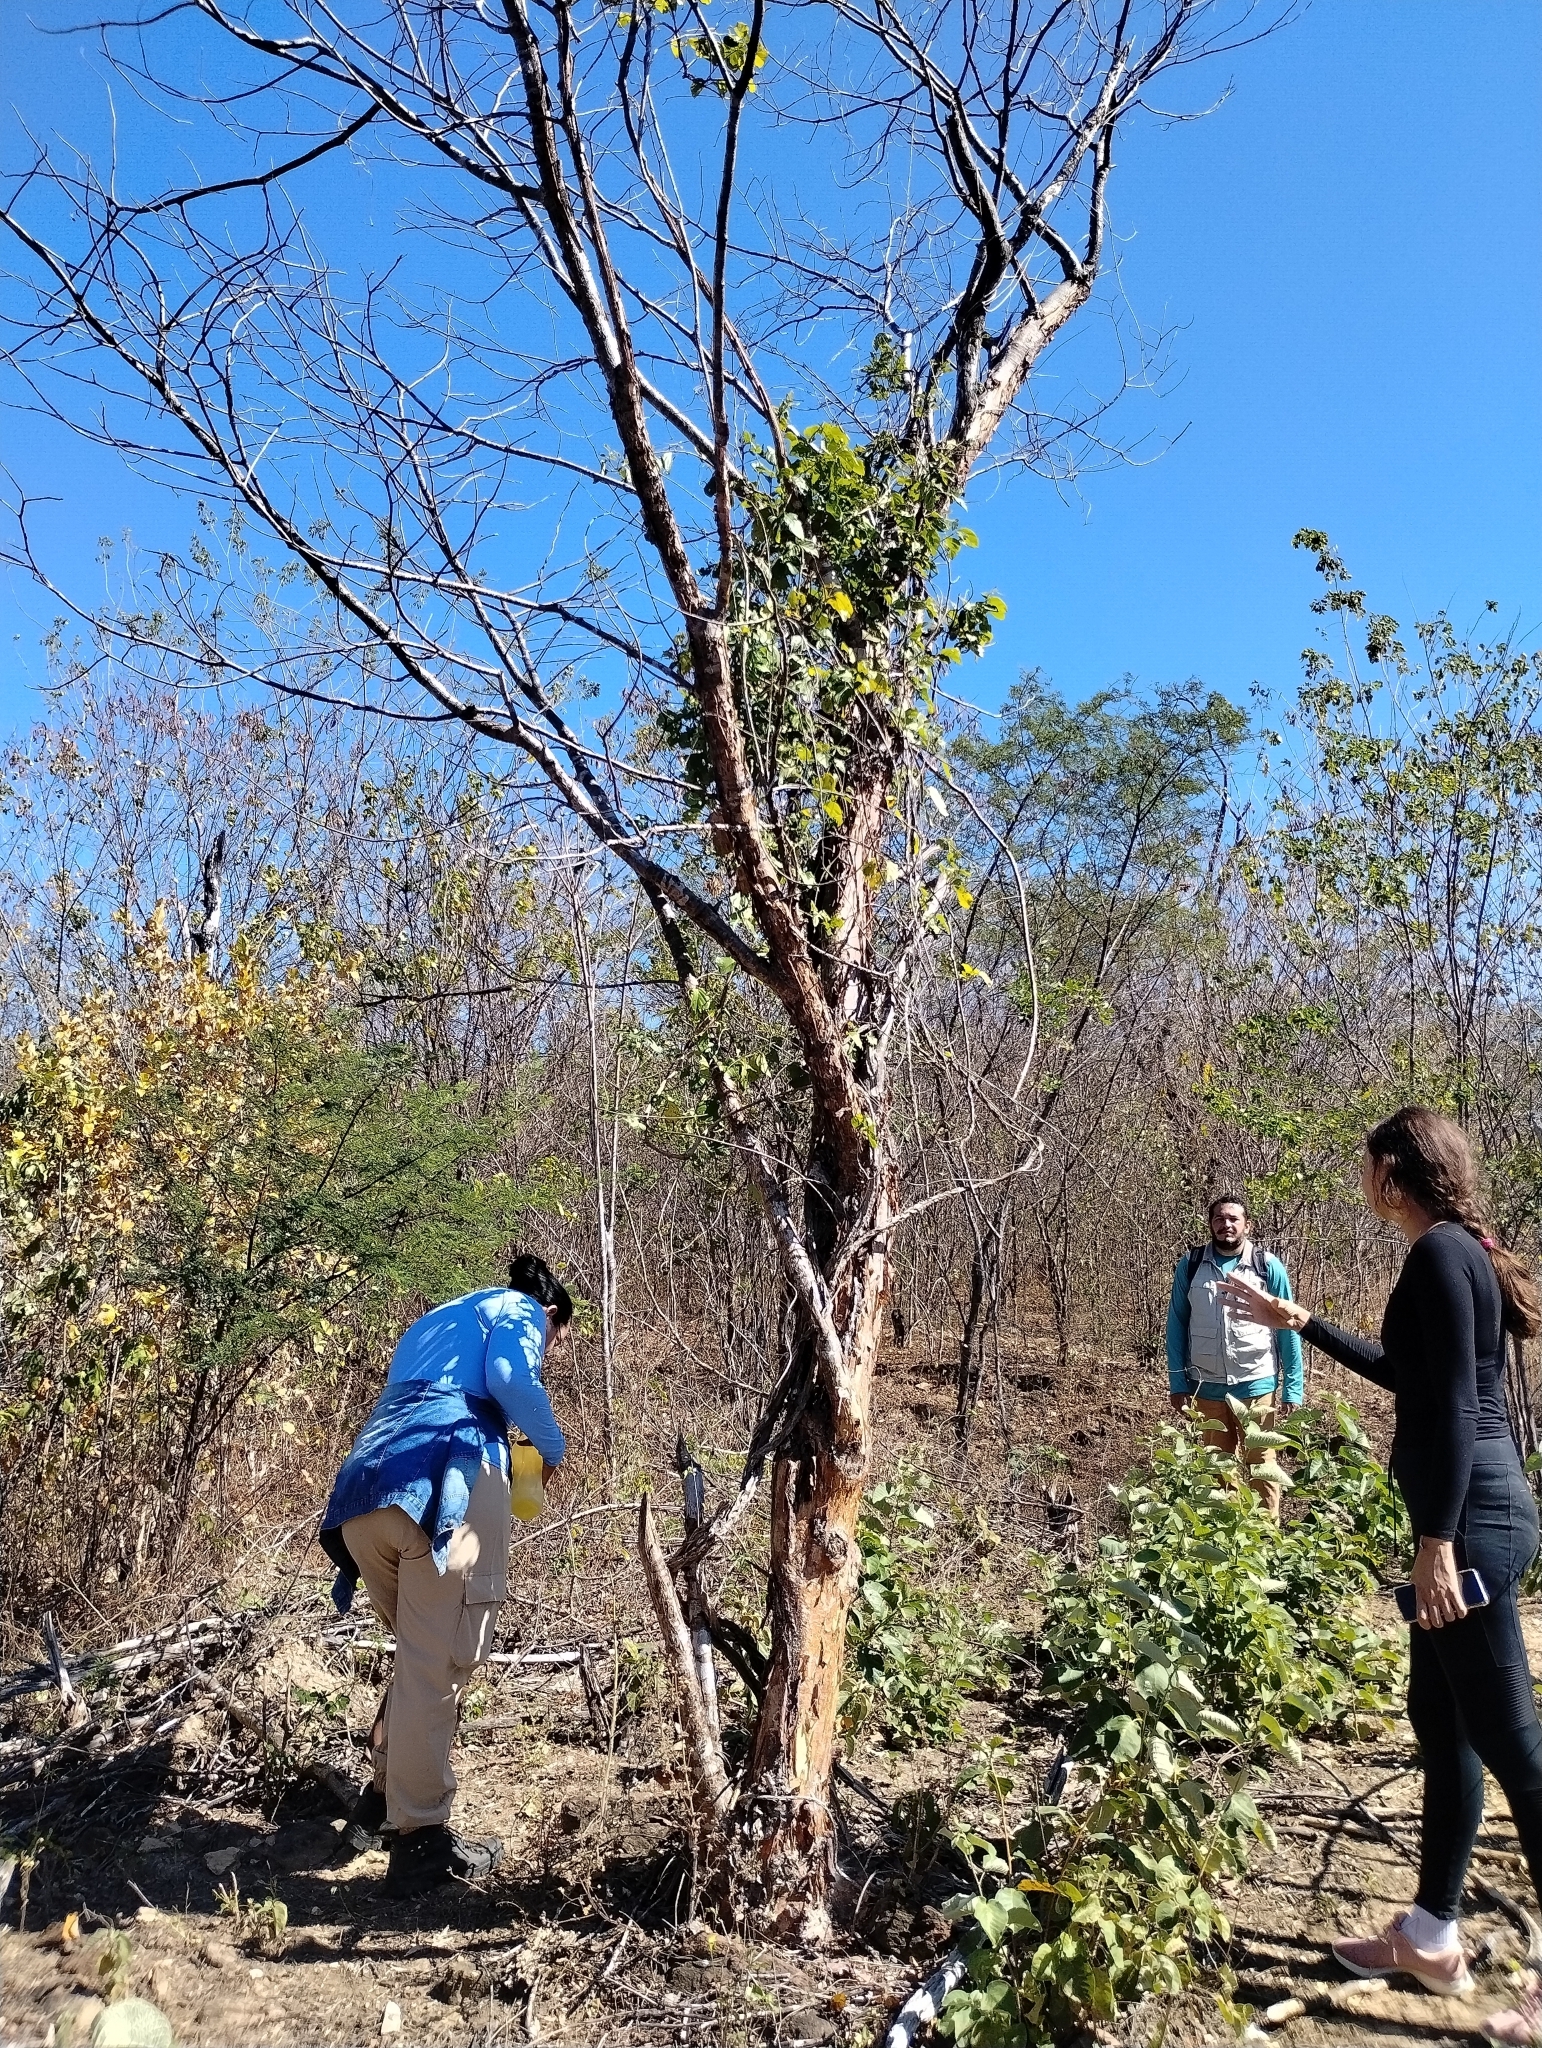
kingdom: Plantae
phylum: Tracheophyta
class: Magnoliopsida
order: Fabales
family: Fabaceae
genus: Amburana
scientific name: Amburana cearensis
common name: Cerejeira
